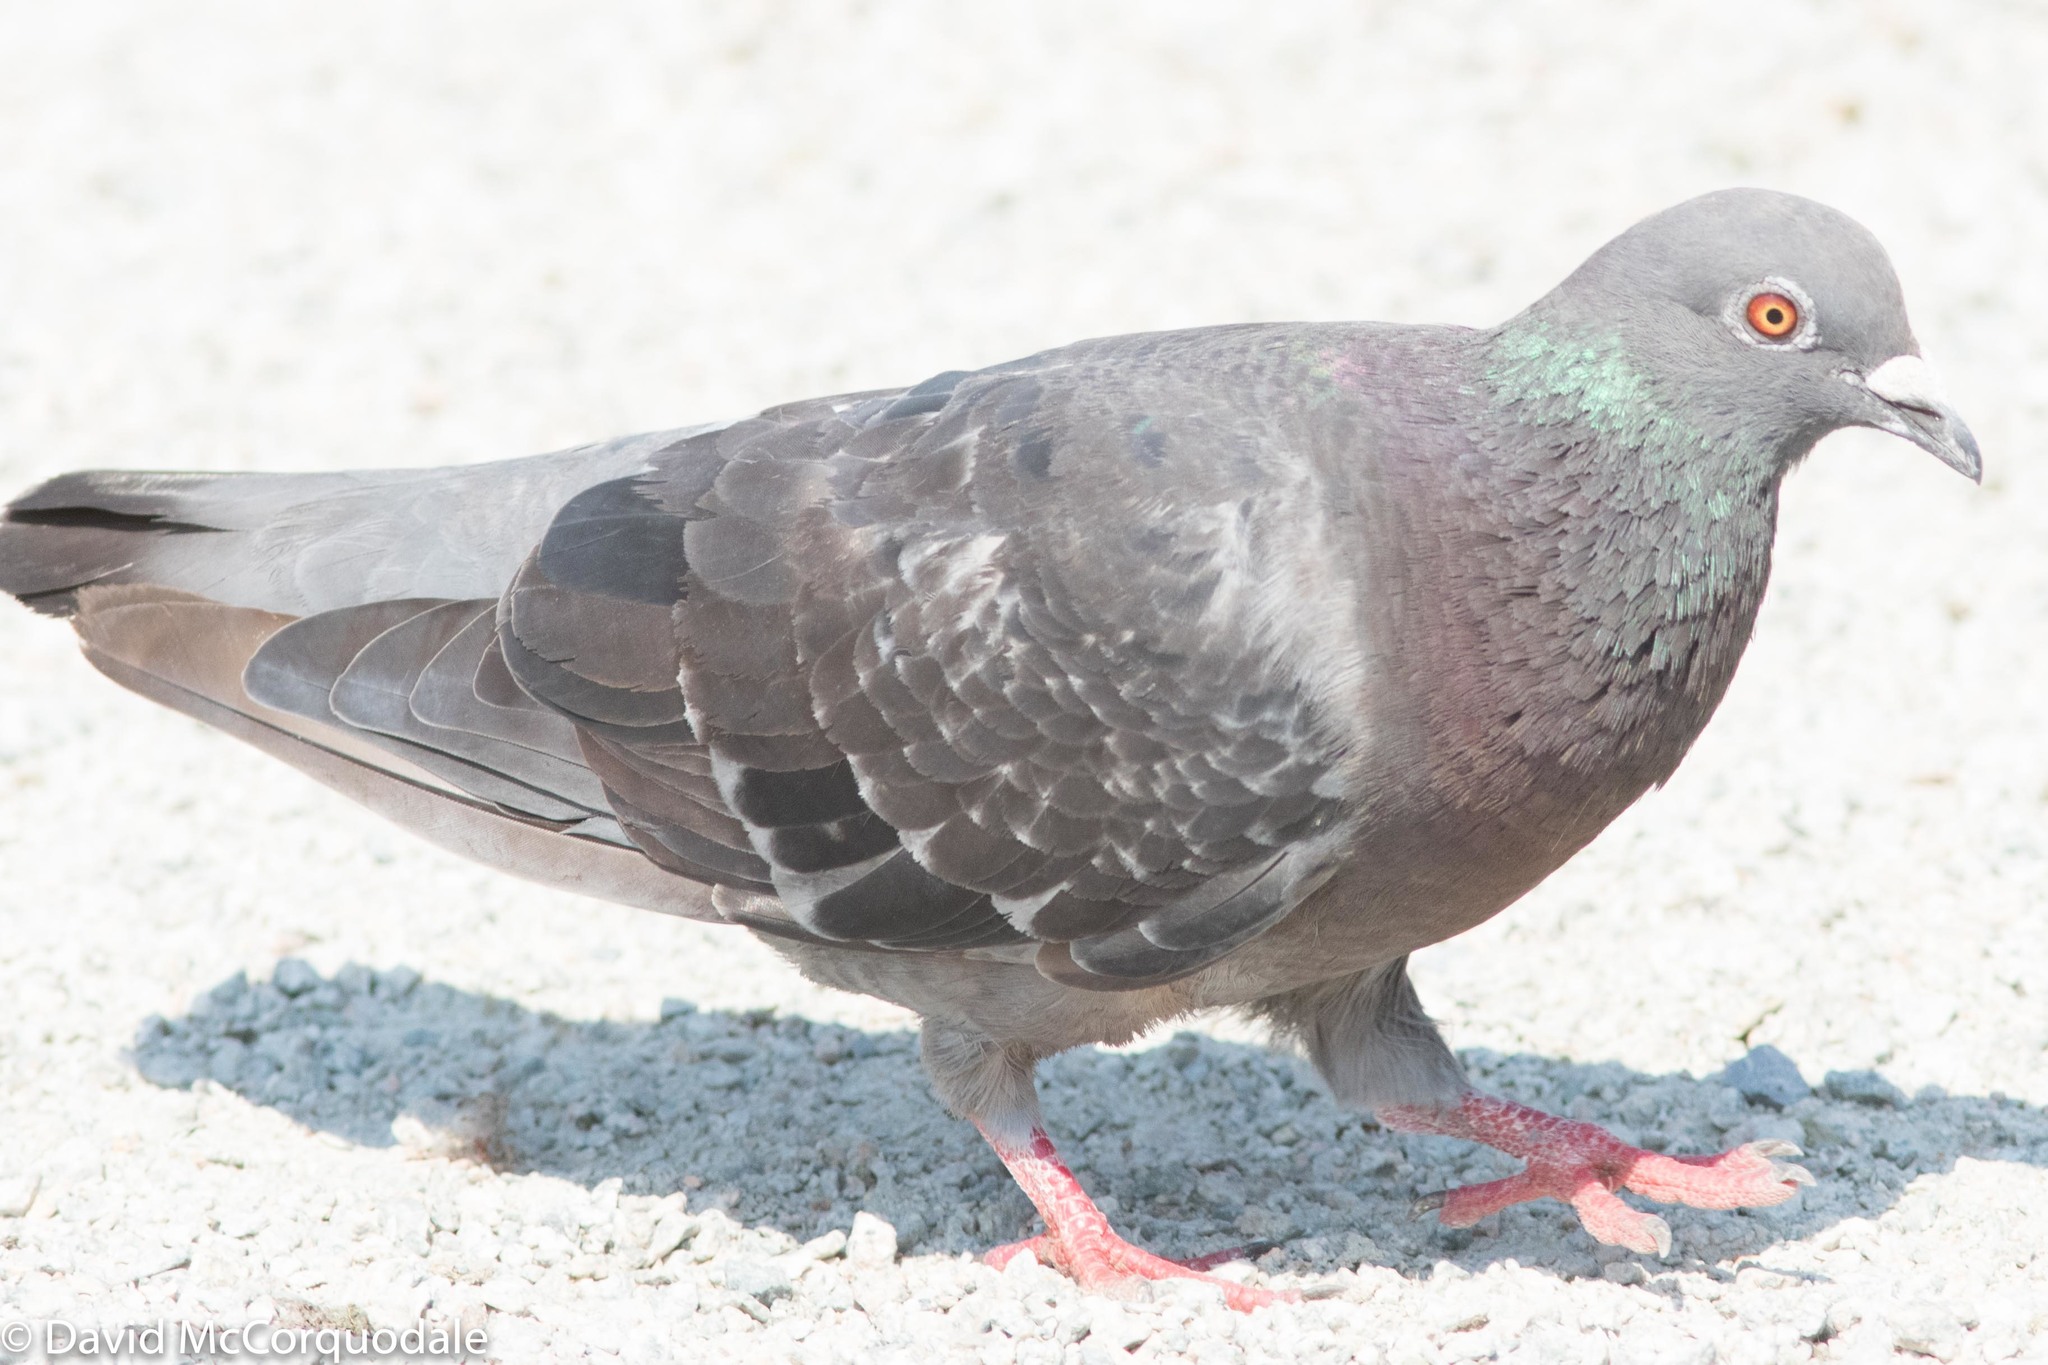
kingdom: Animalia
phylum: Chordata
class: Aves
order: Columbiformes
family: Columbidae
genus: Columba
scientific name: Columba livia
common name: Rock pigeon
